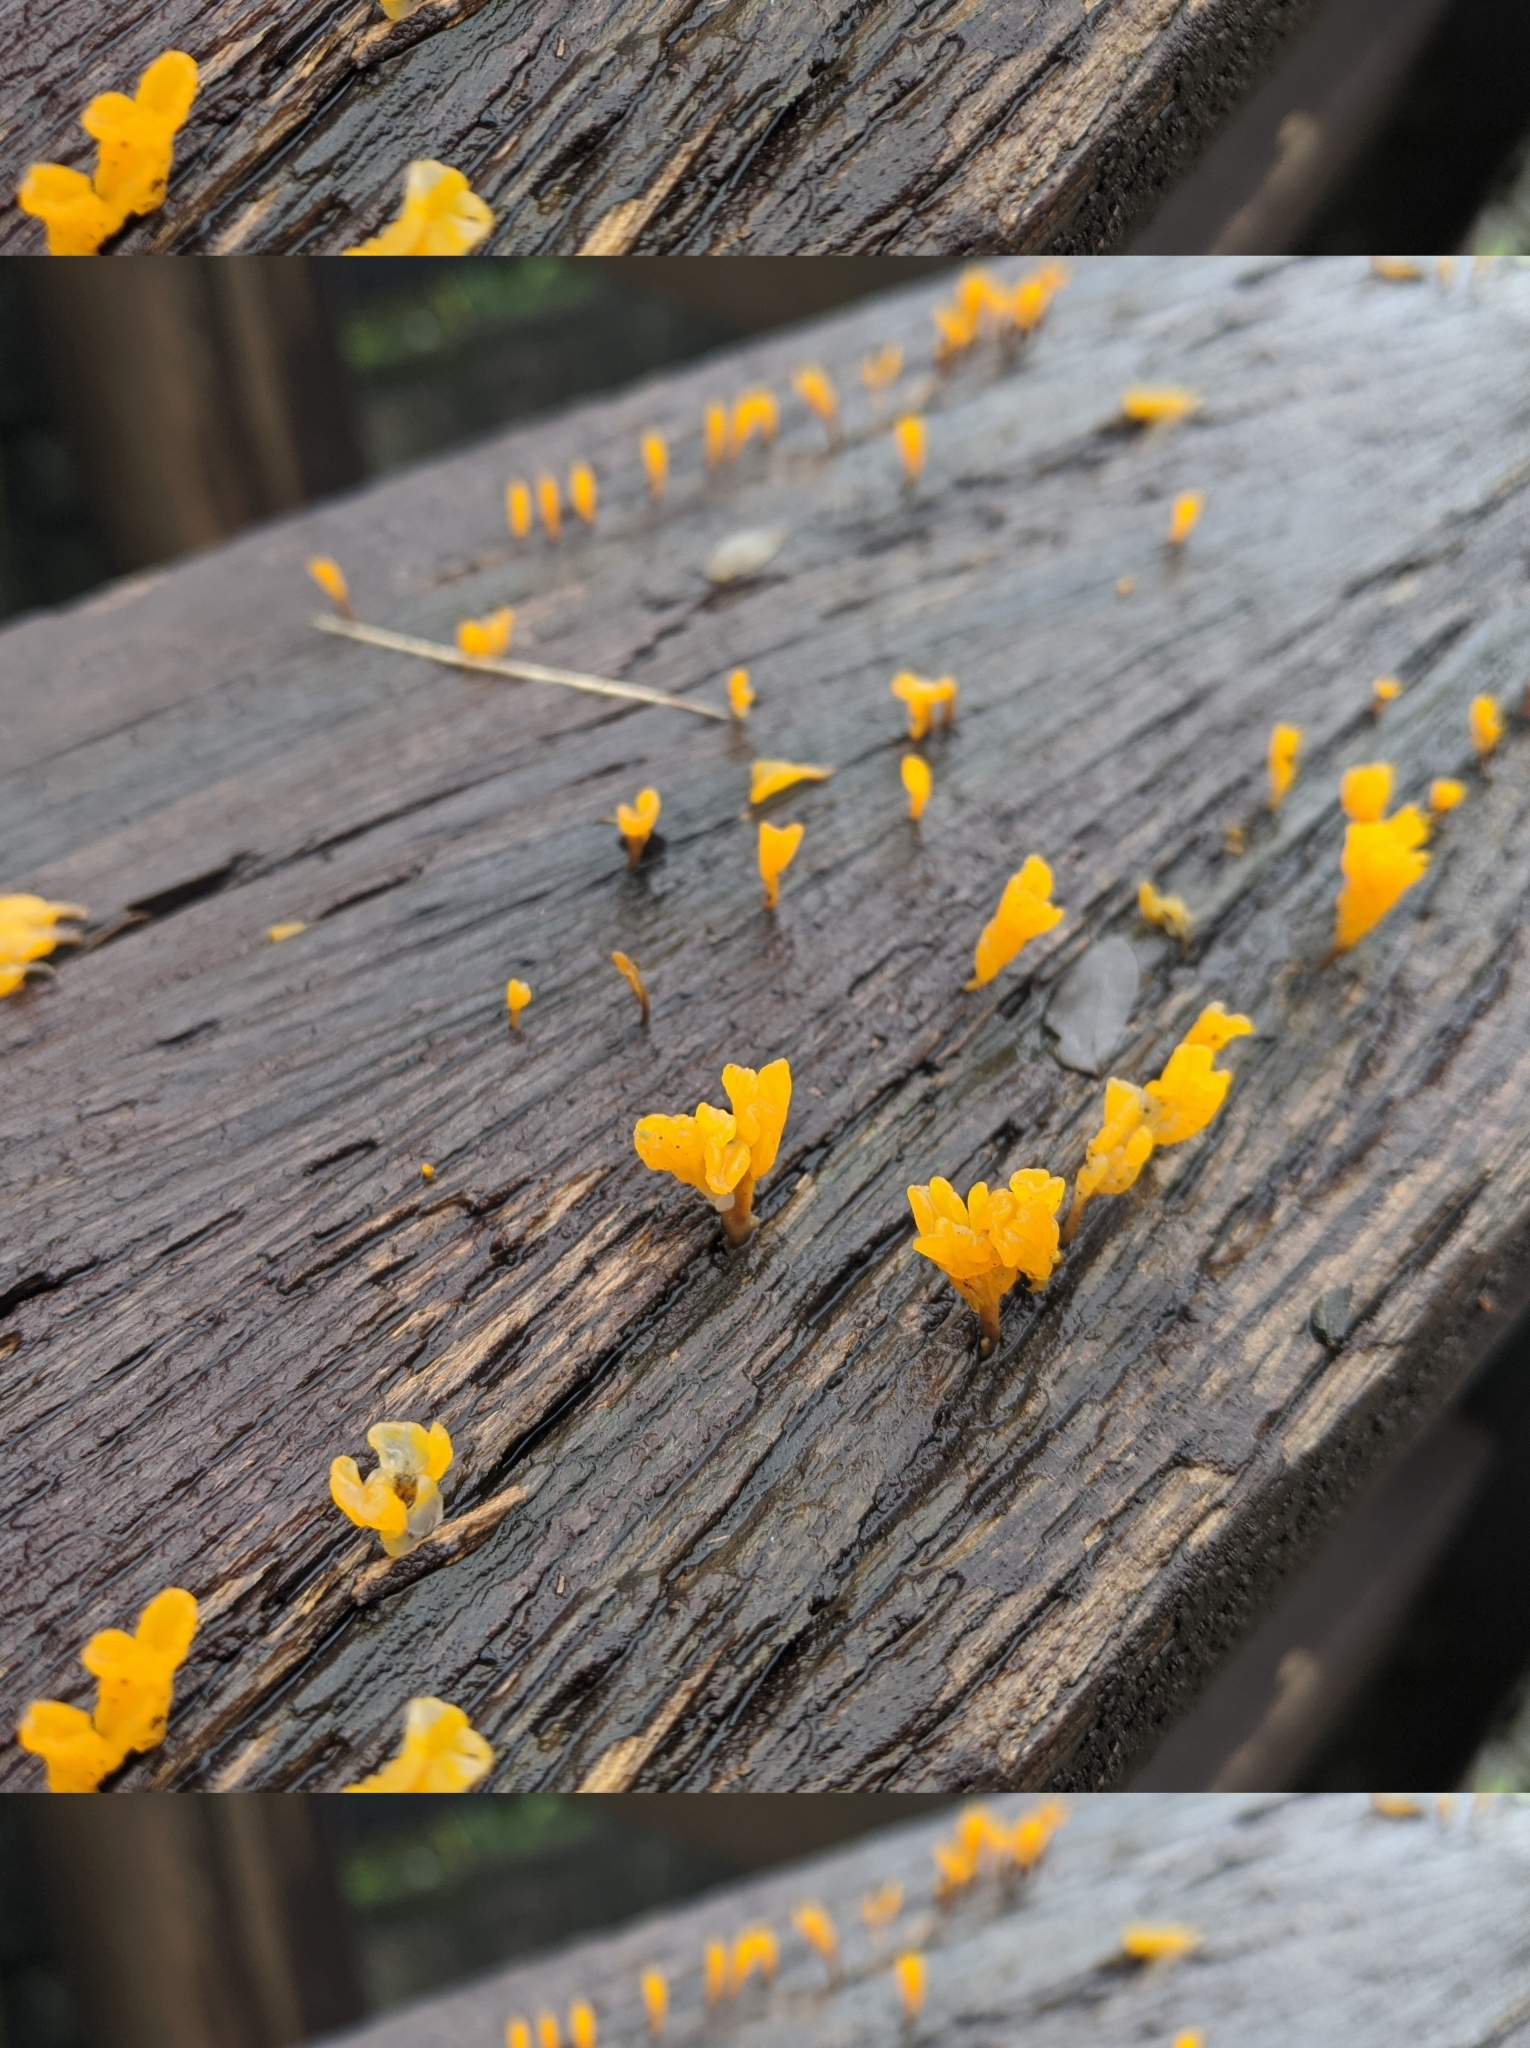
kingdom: Fungi
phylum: Basidiomycota
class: Dacrymycetes
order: Dacrymycetales
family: Dacrymycetaceae
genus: Dacrymyces
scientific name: Dacrymyces spathularius
